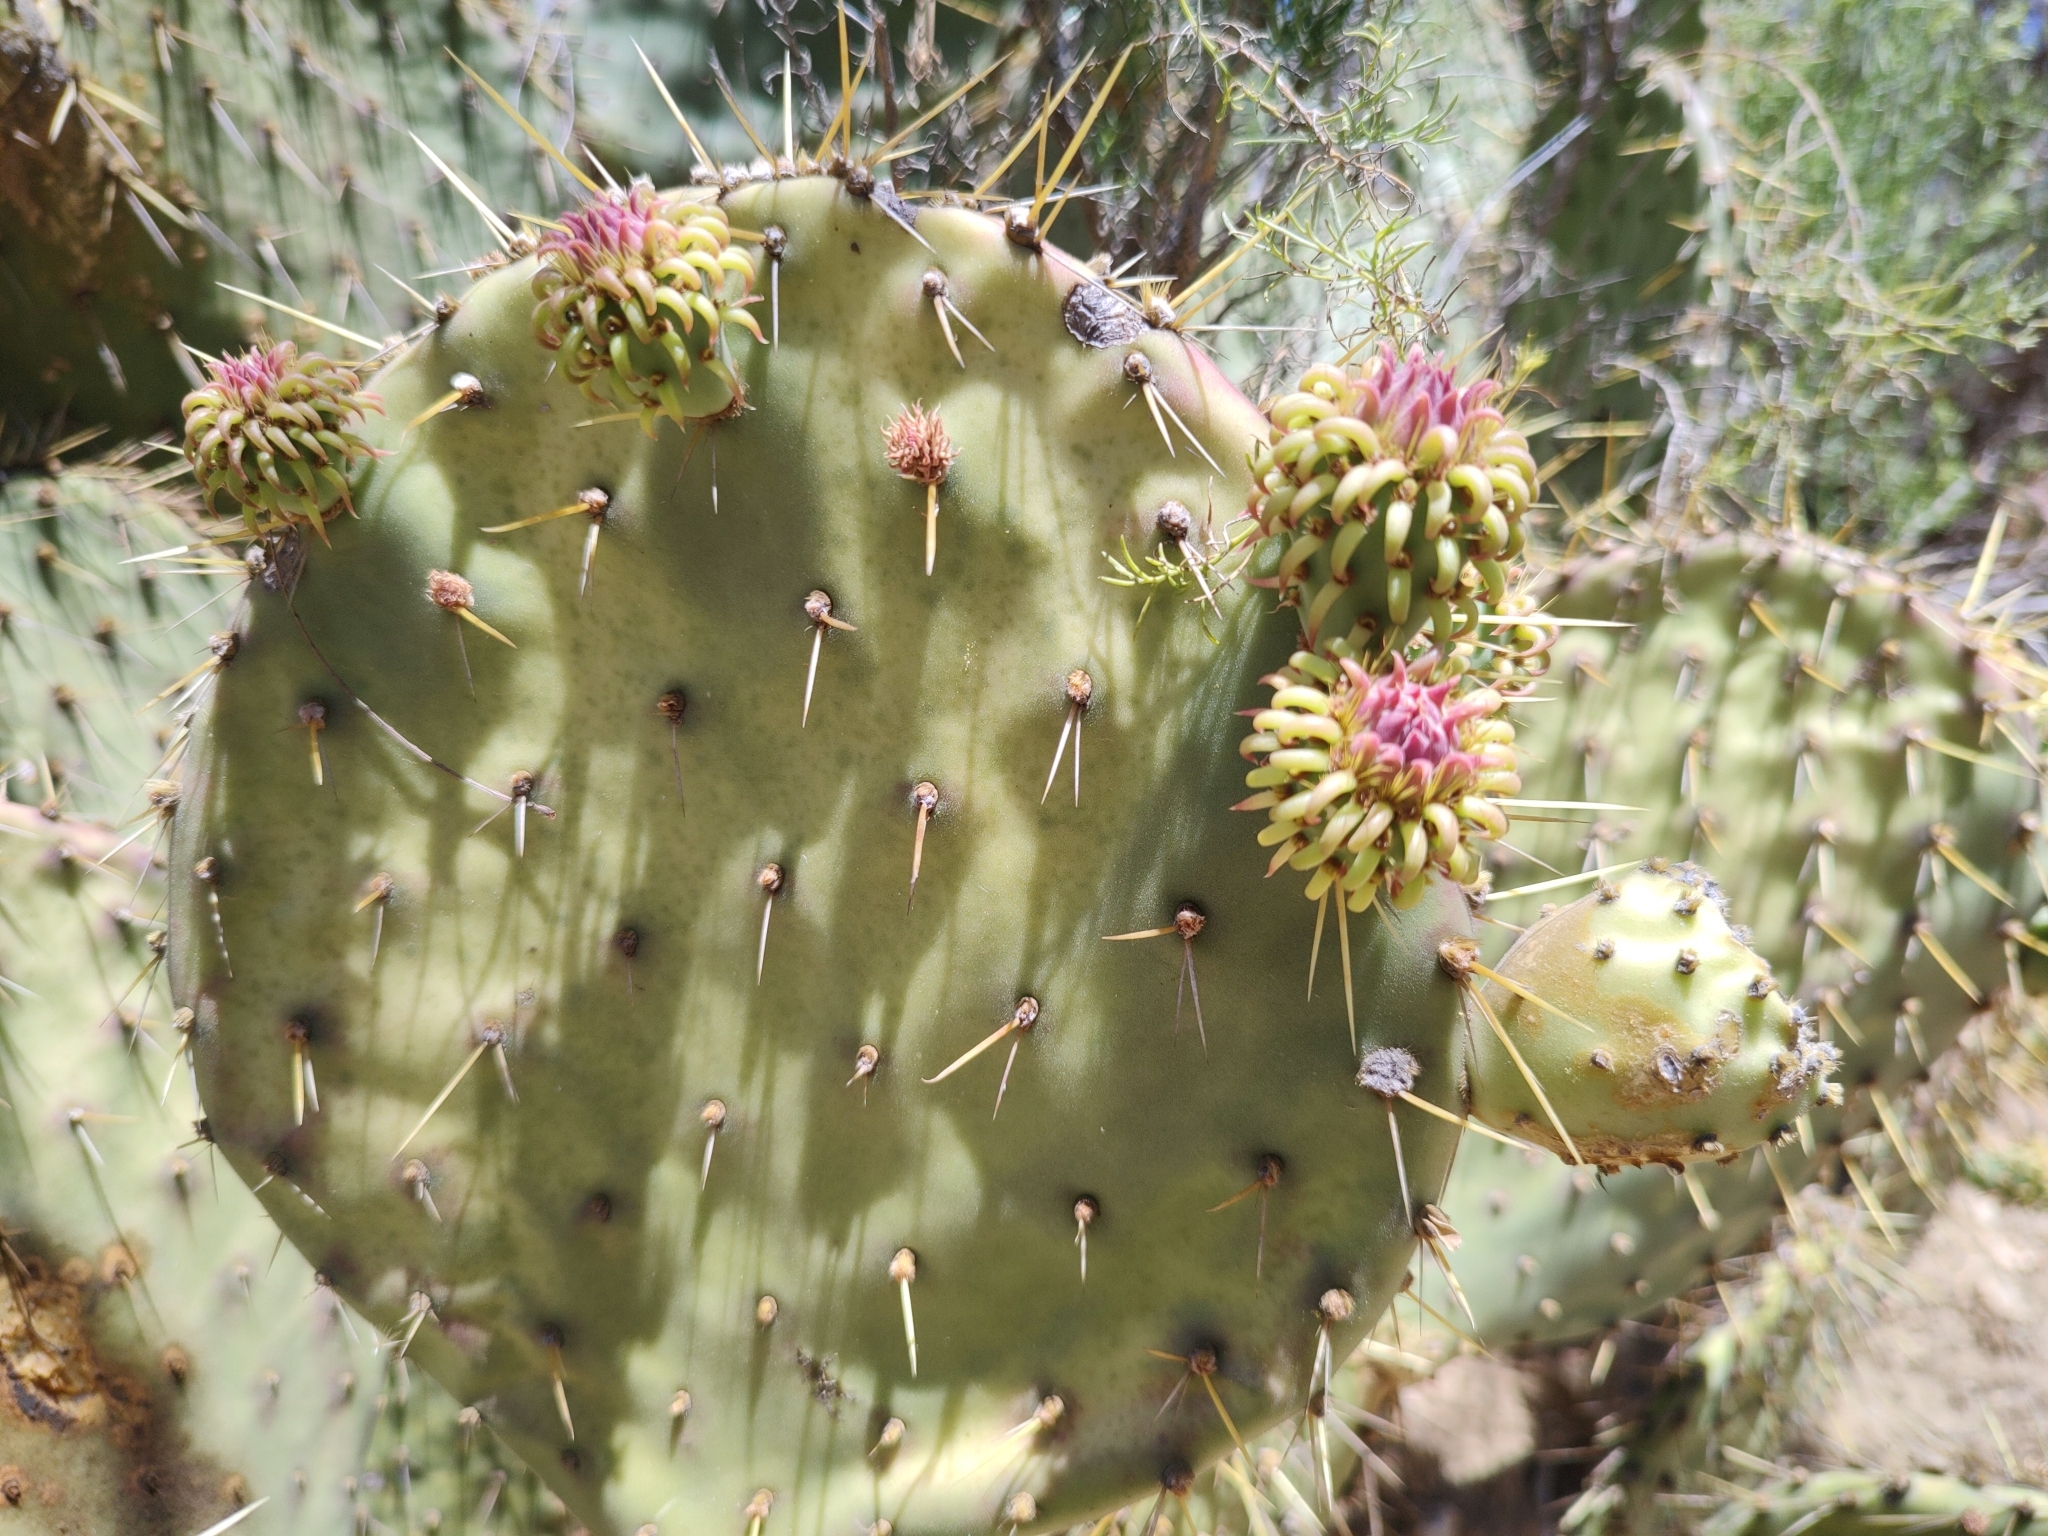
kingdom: Plantae
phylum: Tracheophyta
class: Magnoliopsida
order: Caryophyllales
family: Cactaceae
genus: Opuntia
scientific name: Opuntia caboensis
